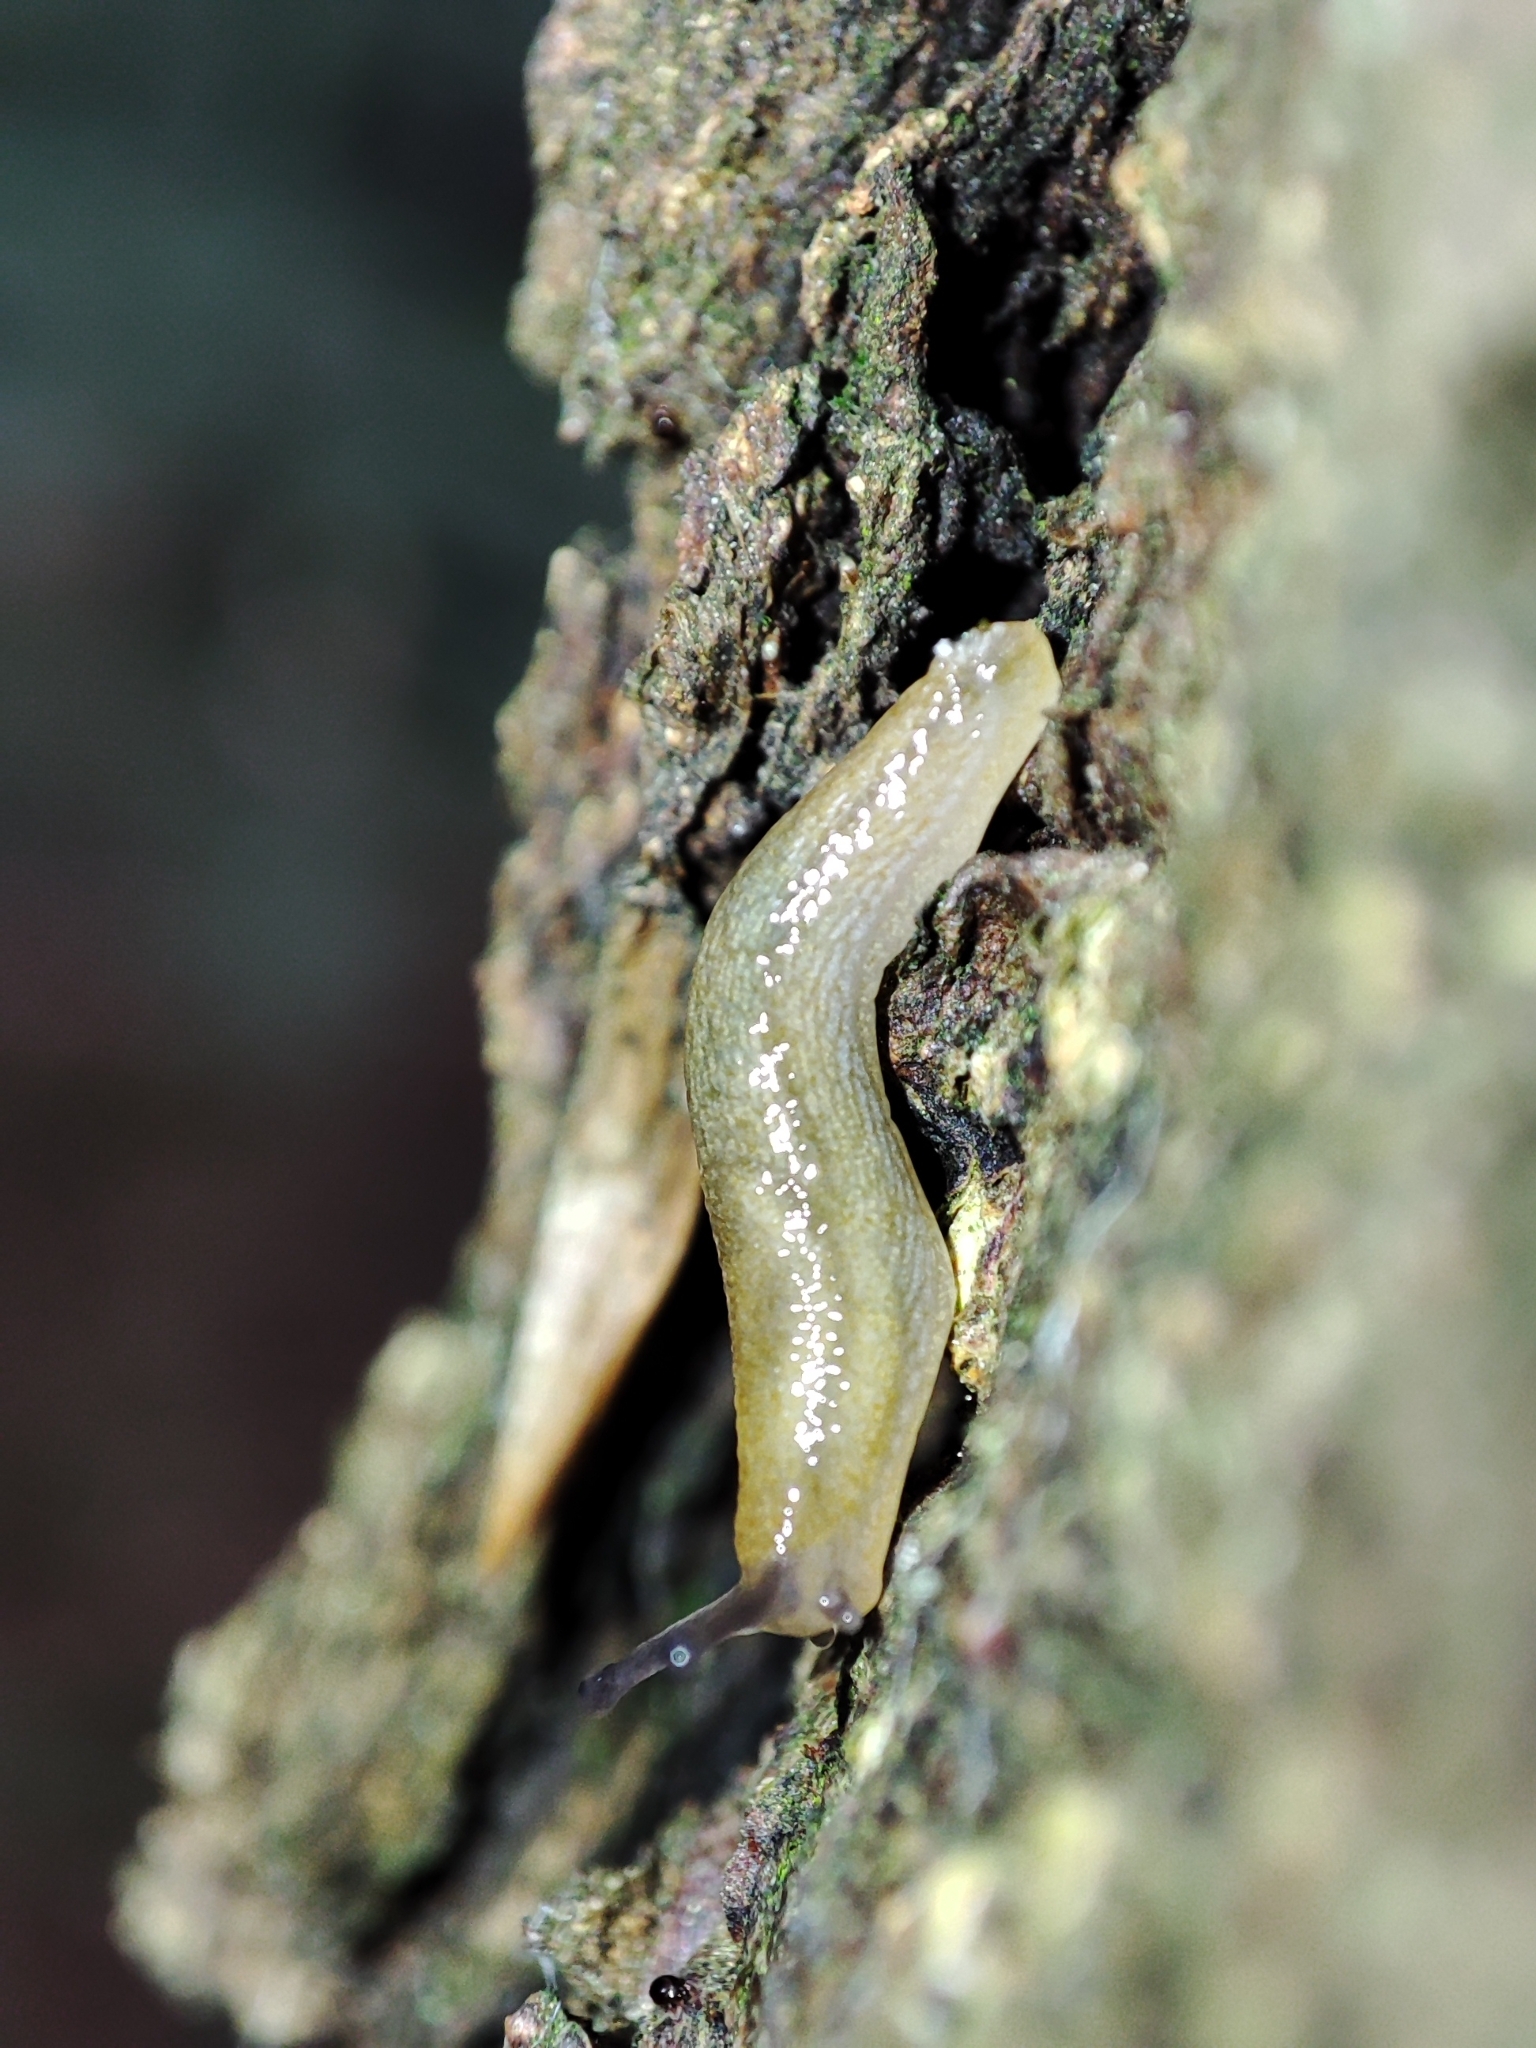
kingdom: Animalia
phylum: Mollusca
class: Gastropoda
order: Stylommatophora
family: Arionidae
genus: Arion
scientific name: Arion fuscus
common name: Northern dusky slug
